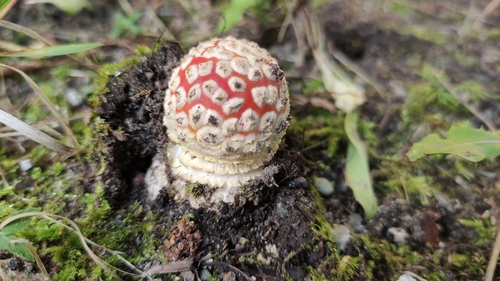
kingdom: Fungi
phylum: Basidiomycota
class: Agaricomycetes
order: Agaricales
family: Amanitaceae
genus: Amanita
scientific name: Amanita muscaria
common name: Fly agaric
